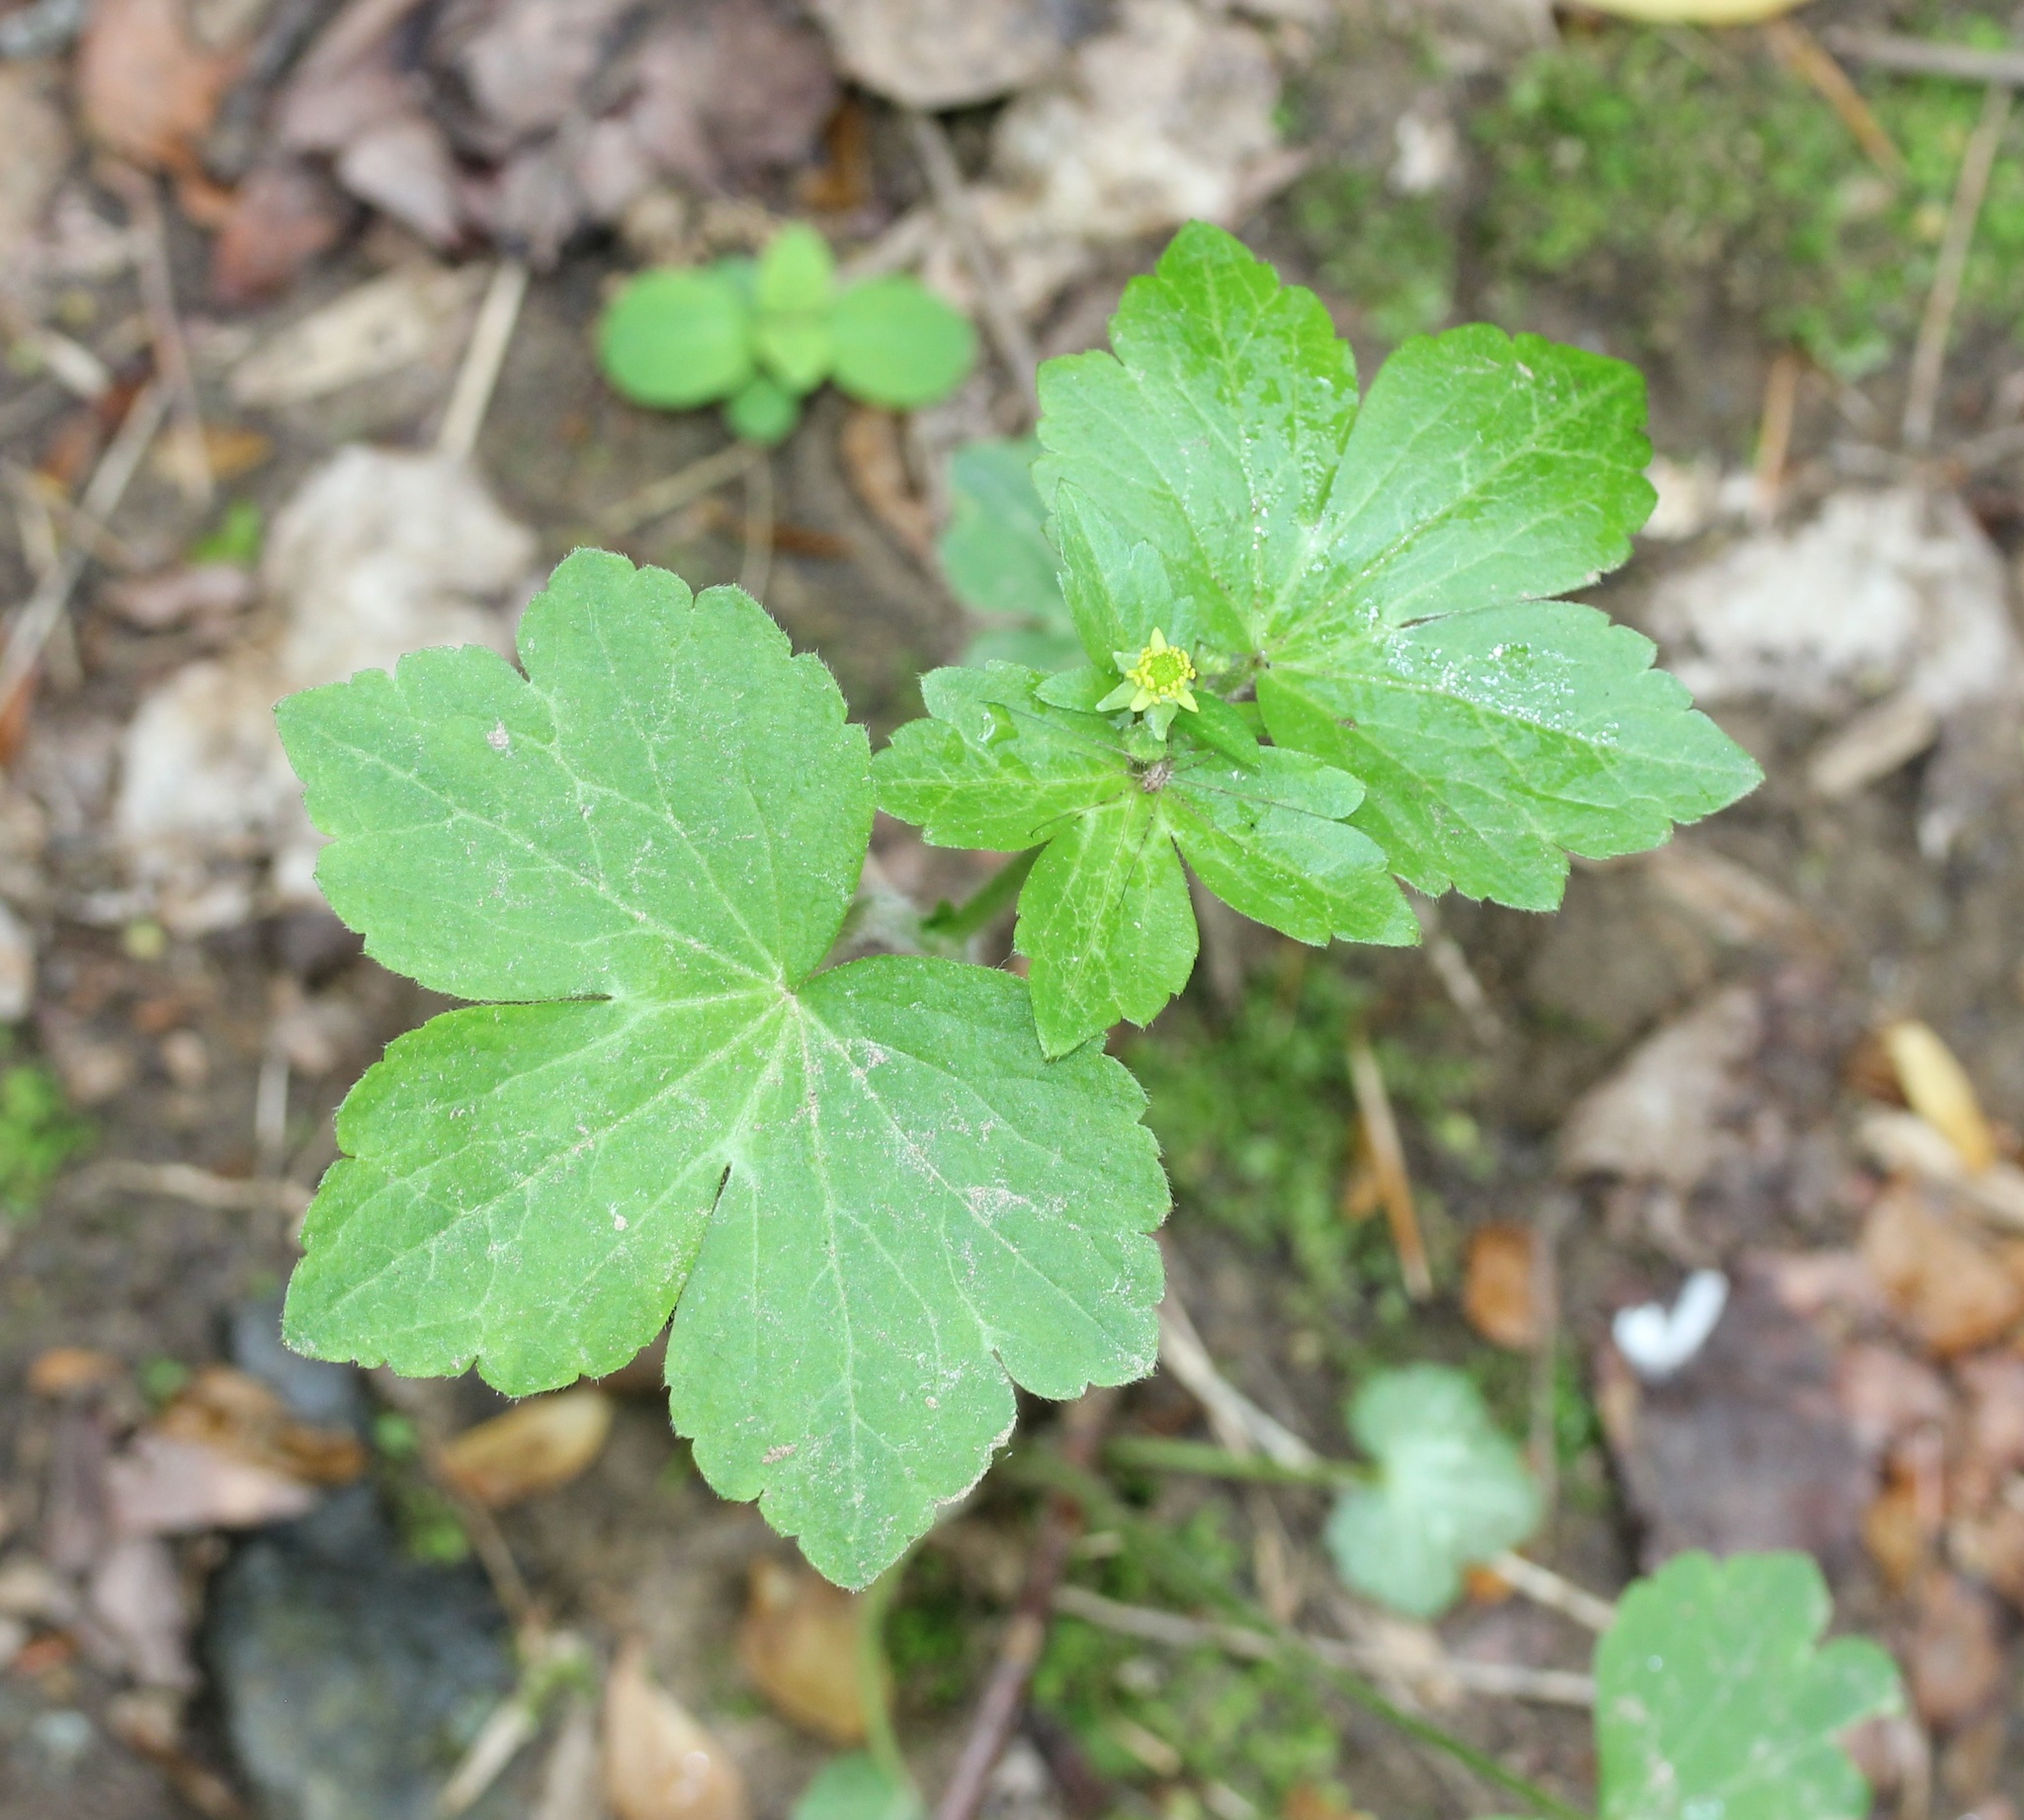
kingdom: Plantae
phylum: Tracheophyta
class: Magnoliopsida
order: Ranunculales
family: Ranunculaceae
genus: Ranunculus
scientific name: Ranunculus recurvatus
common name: Blisterwort
